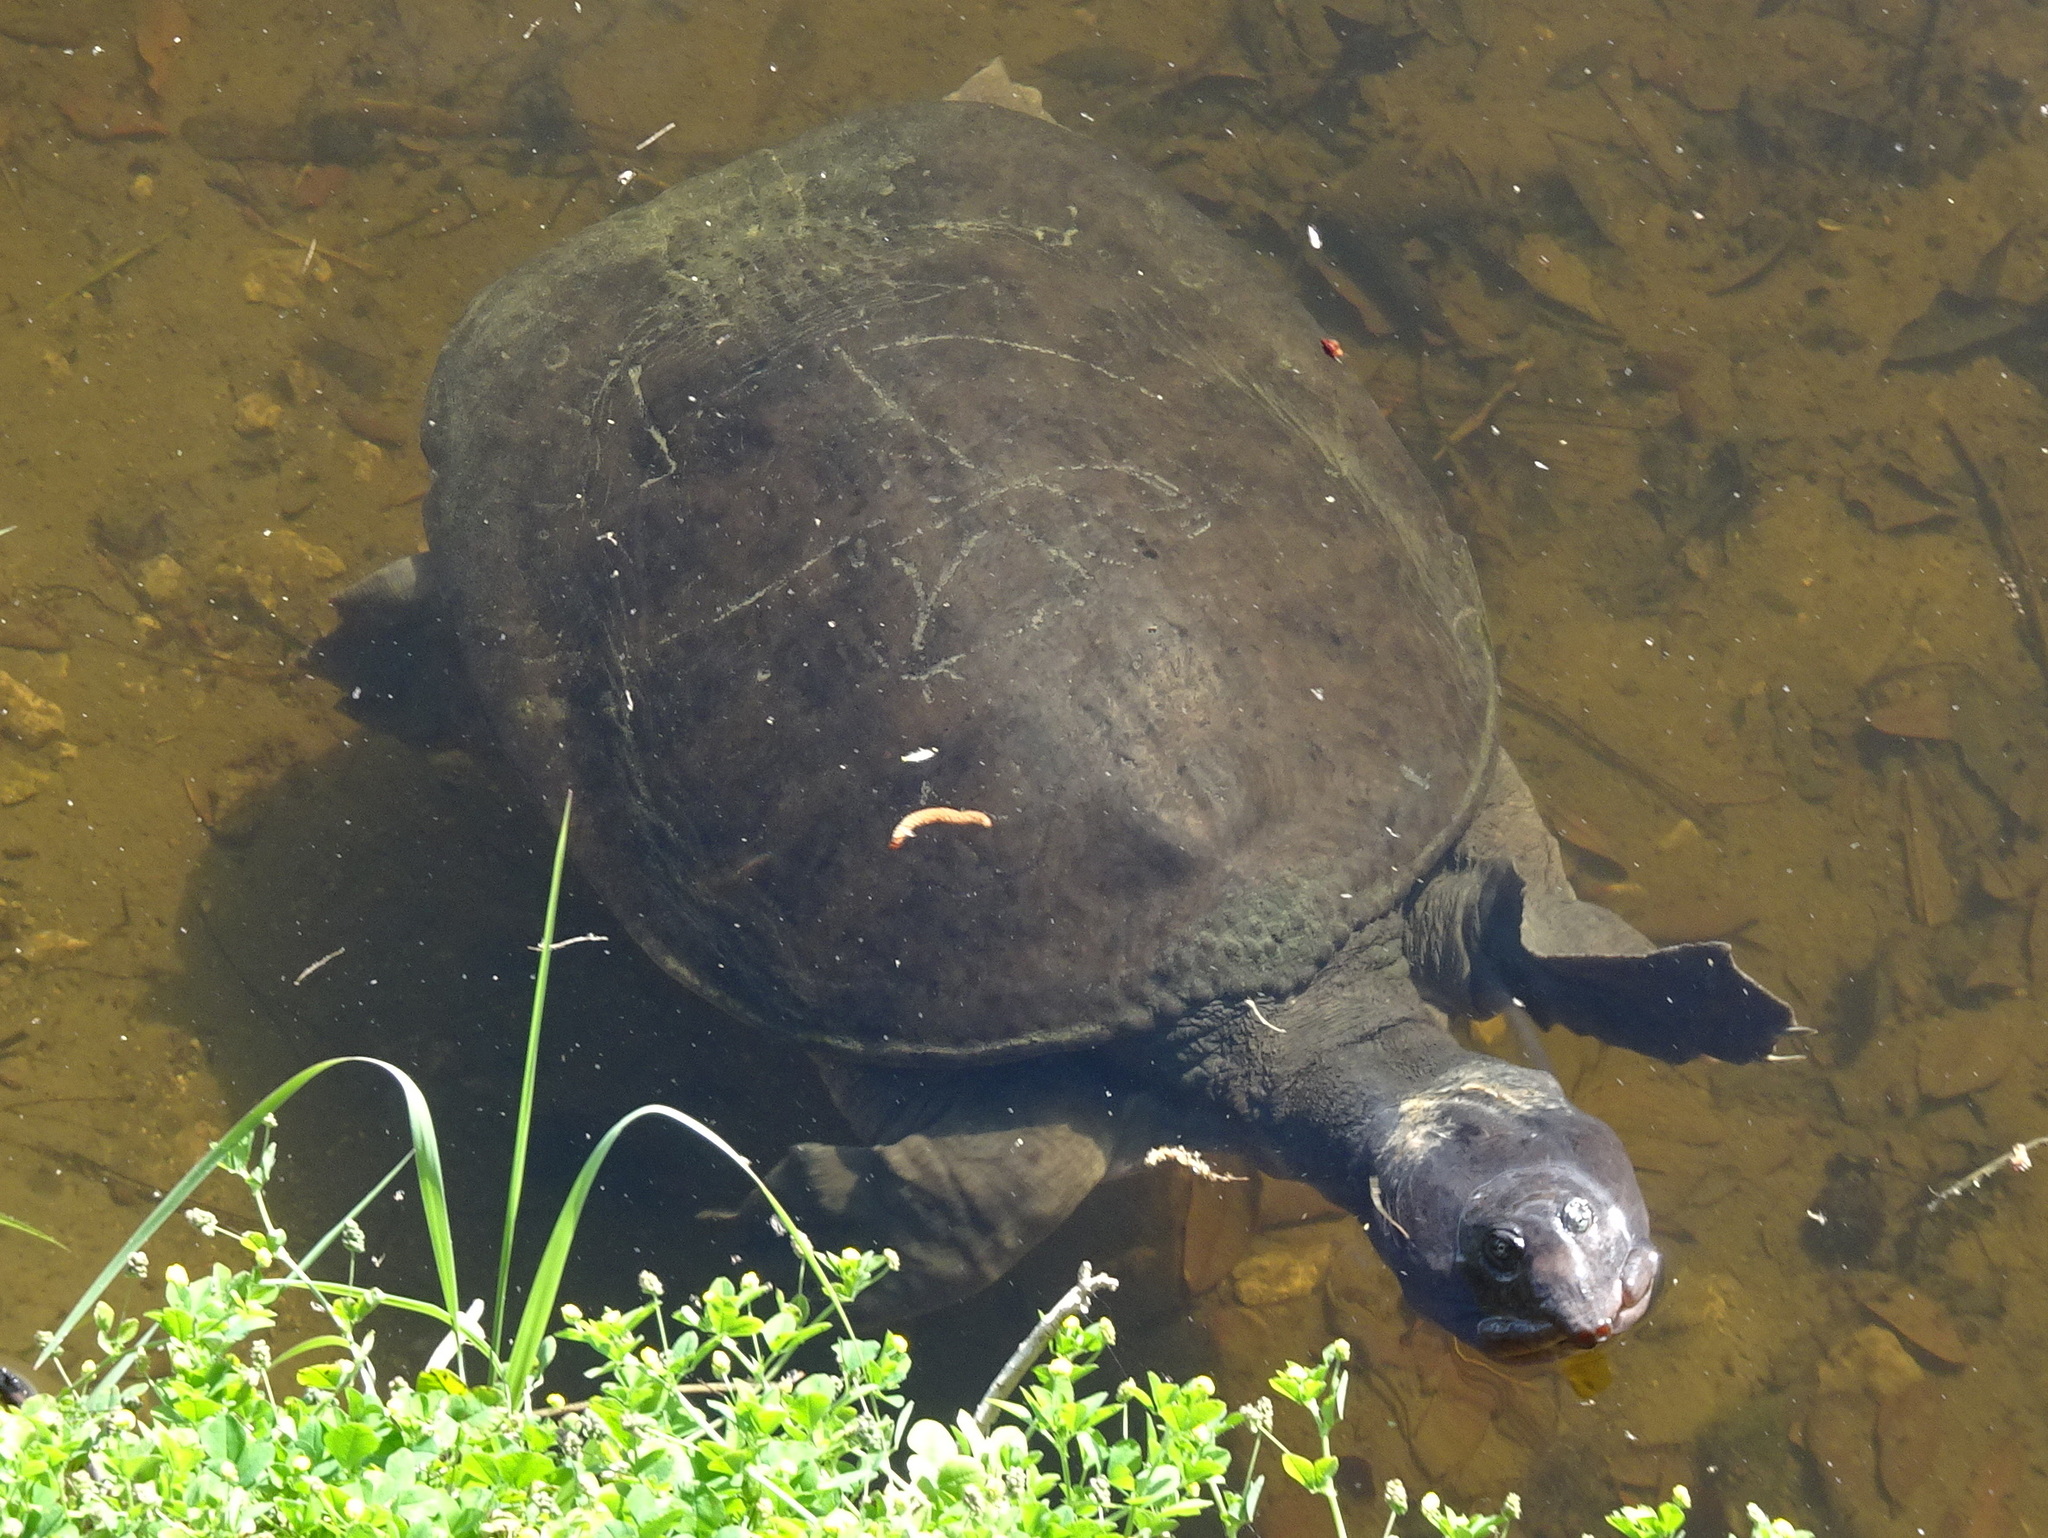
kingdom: Animalia
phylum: Chordata
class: Testudines
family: Trionychidae
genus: Apalone
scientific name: Apalone ferox
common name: Florida softshell turtle
